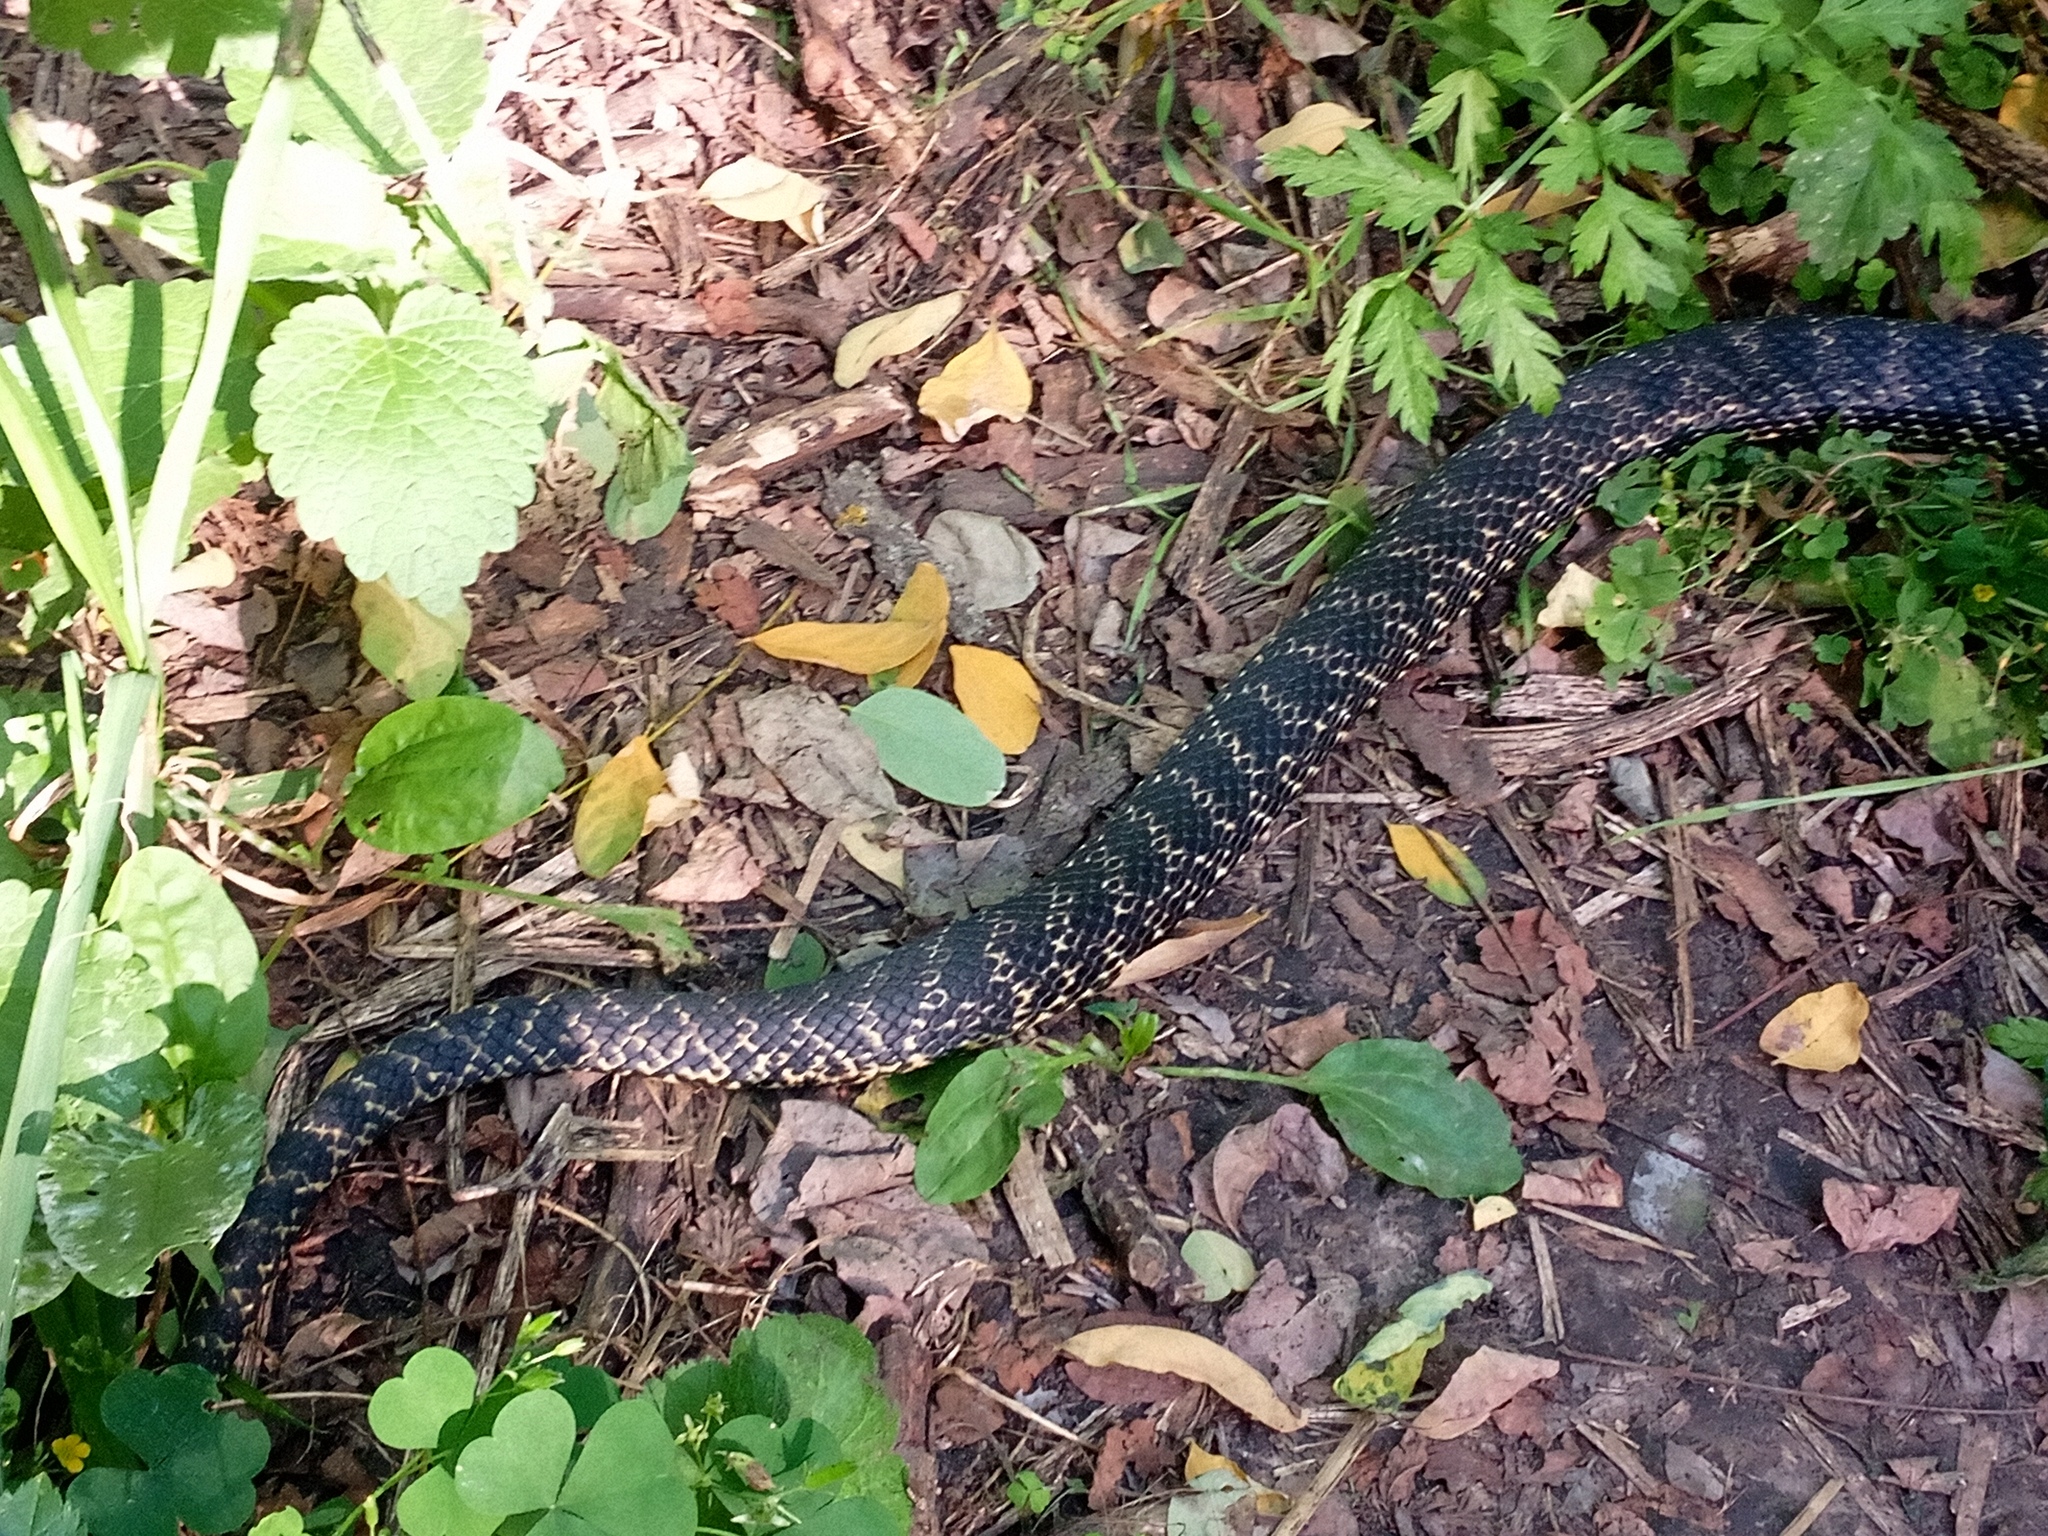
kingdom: Animalia
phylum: Chordata
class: Squamata
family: Colubridae
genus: Elaphe
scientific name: Elaphe sauromates
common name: Eastern four-lined ratsnake
